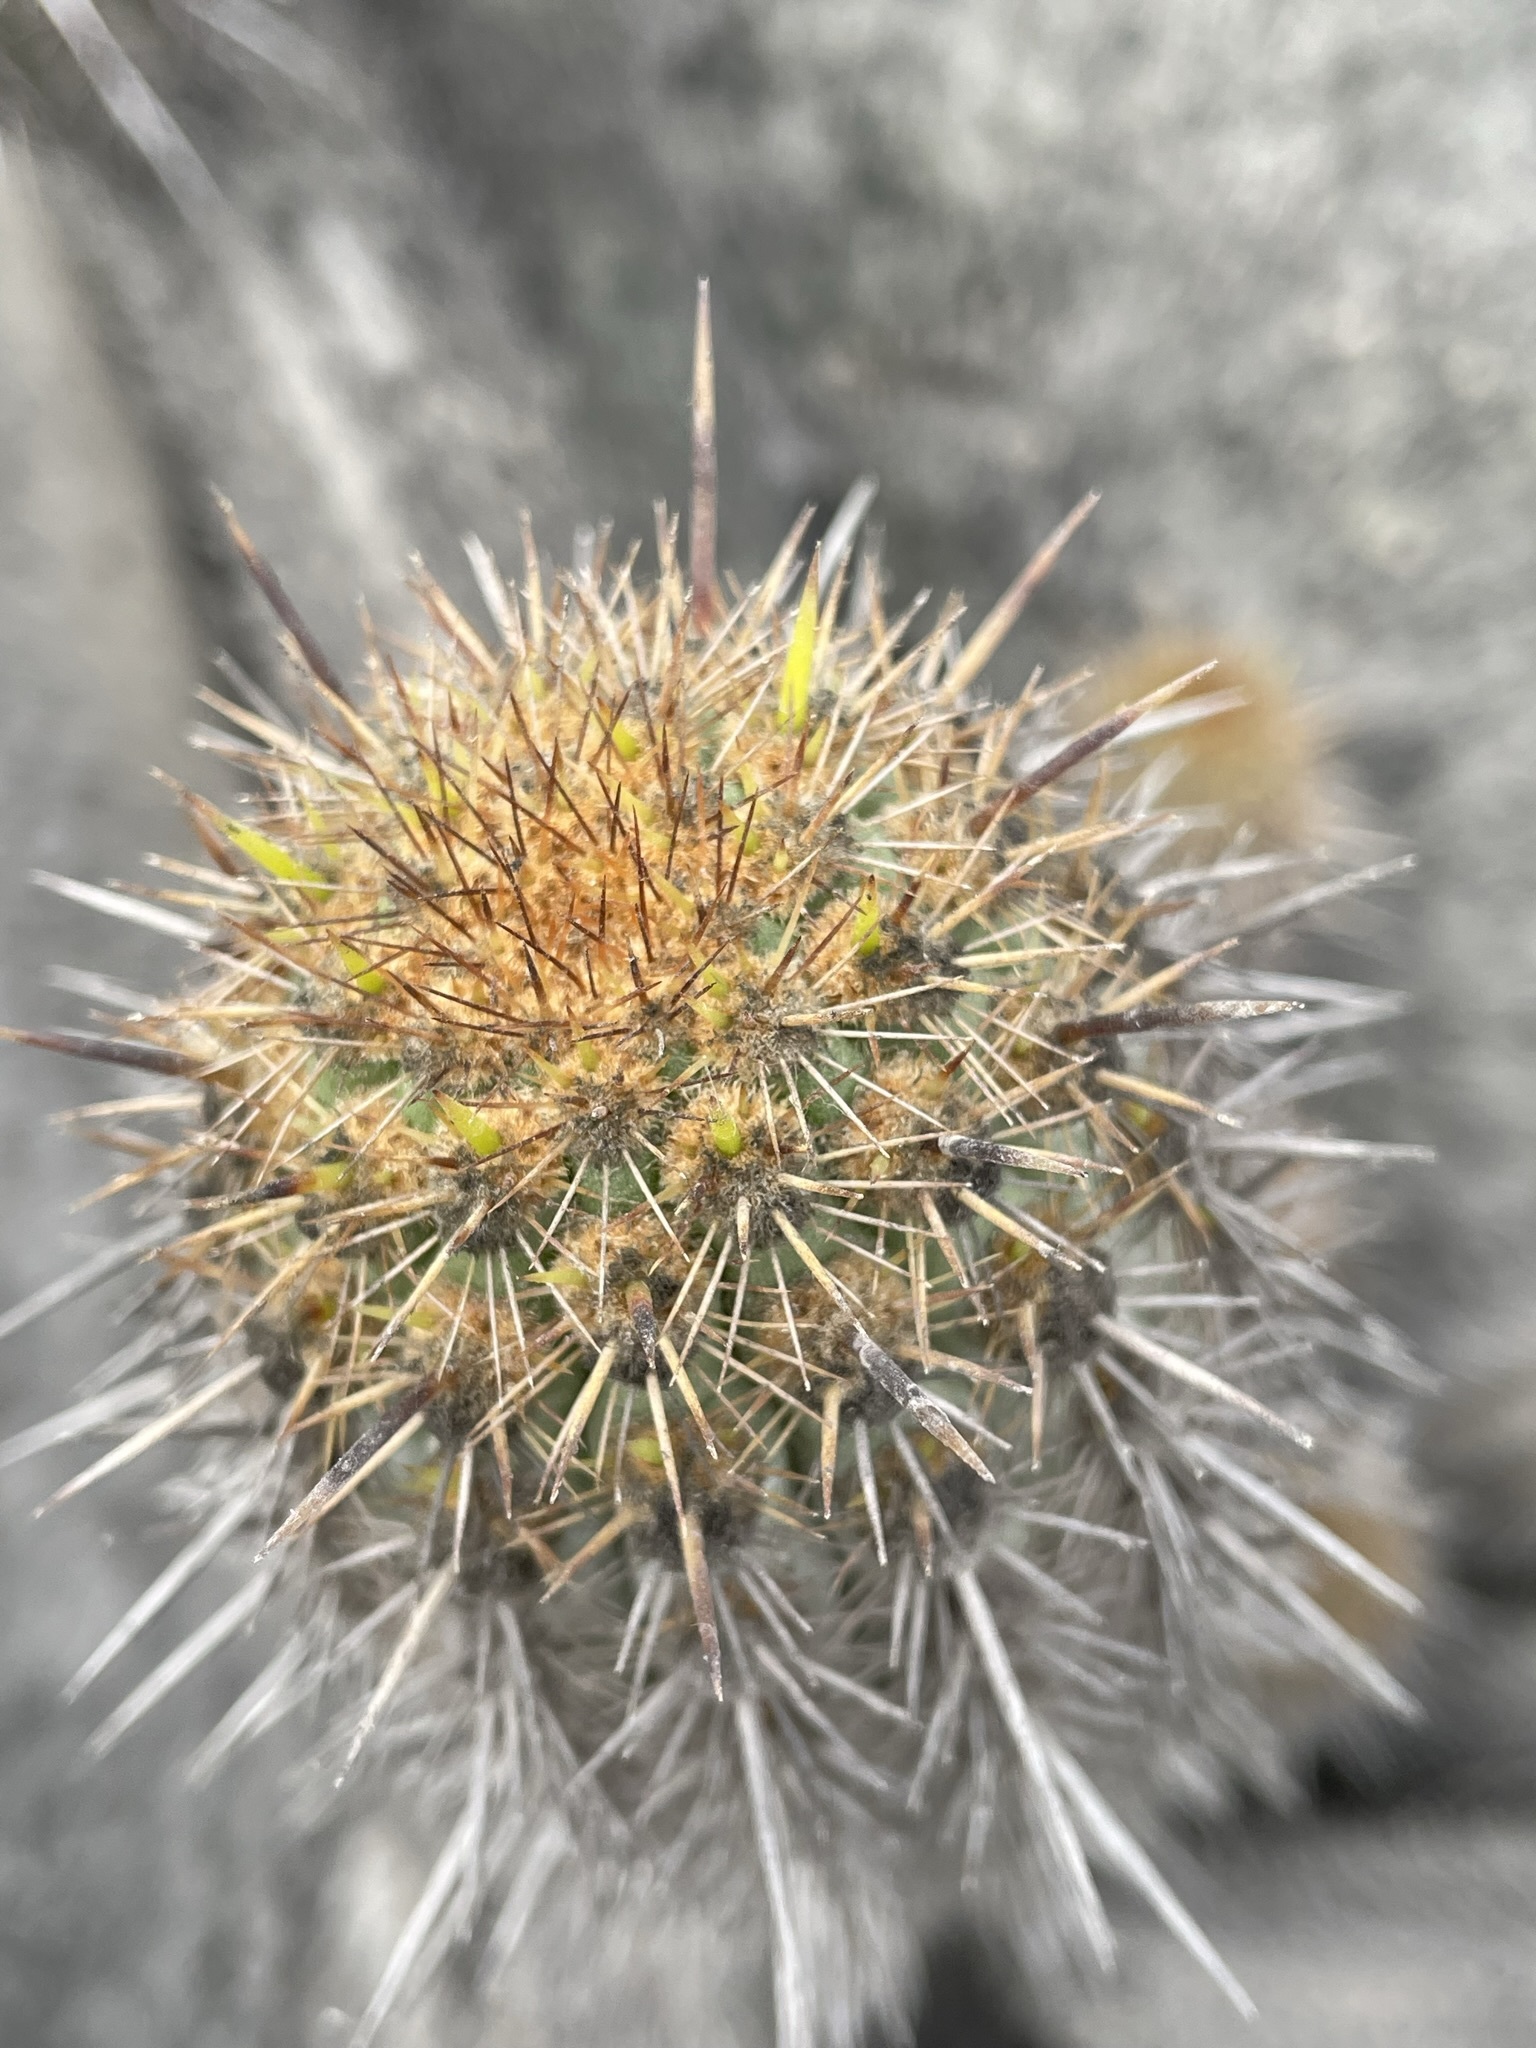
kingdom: Plantae
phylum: Tracheophyta
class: Magnoliopsida
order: Caryophyllales
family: Cactaceae
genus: Haageocereus
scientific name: Haageocereus acranthus
